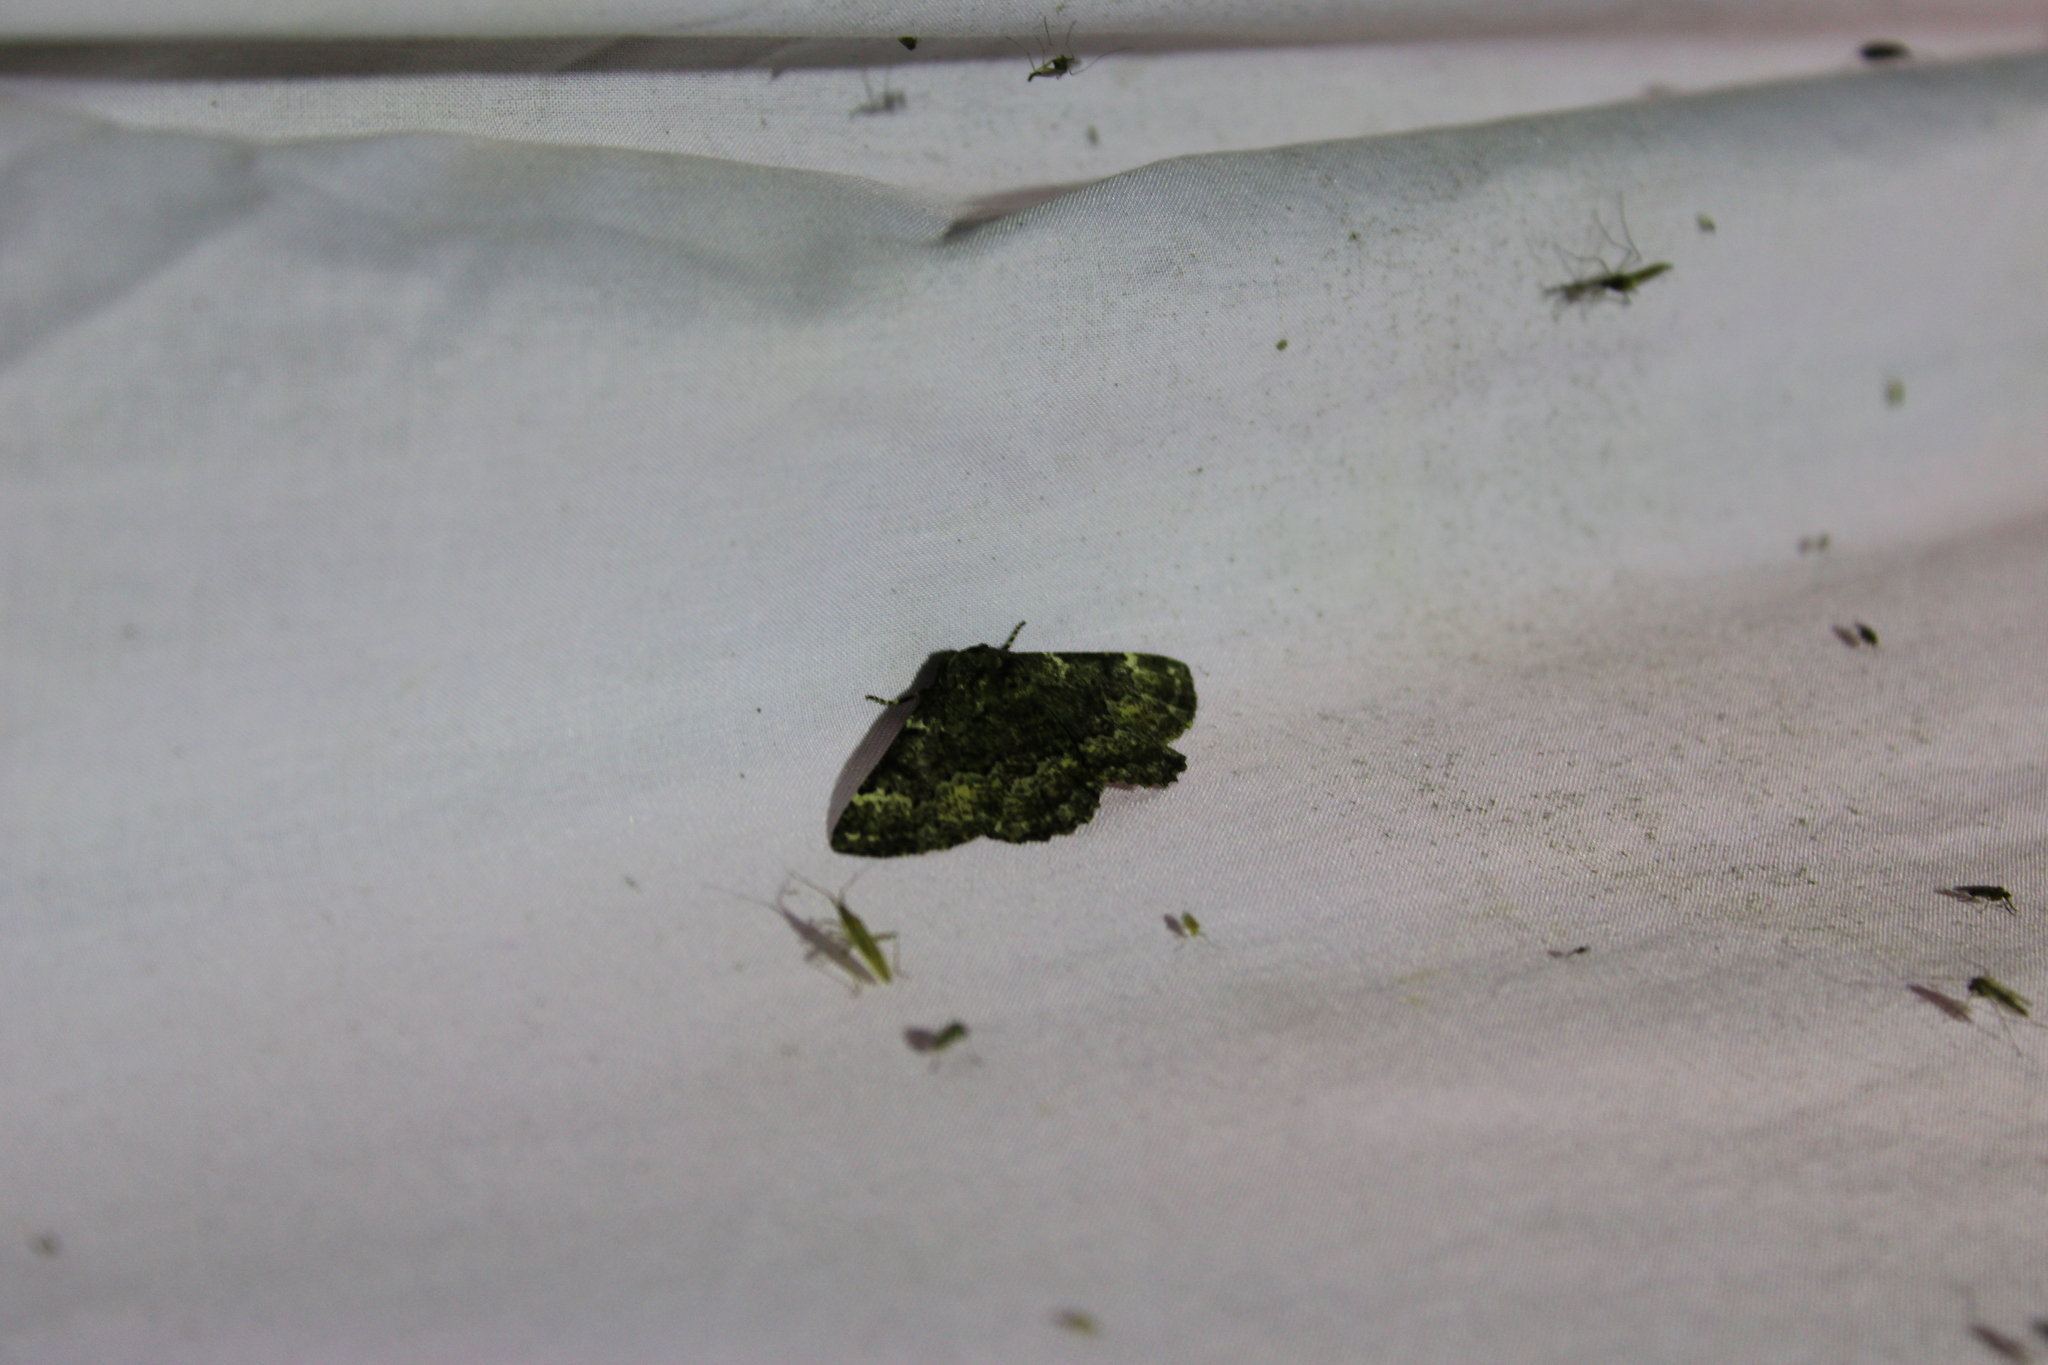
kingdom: Animalia
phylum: Arthropoda
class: Insecta
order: Lepidoptera
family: Geometridae
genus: Phaeoura
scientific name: Phaeoura quernaria
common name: Oak beauty
